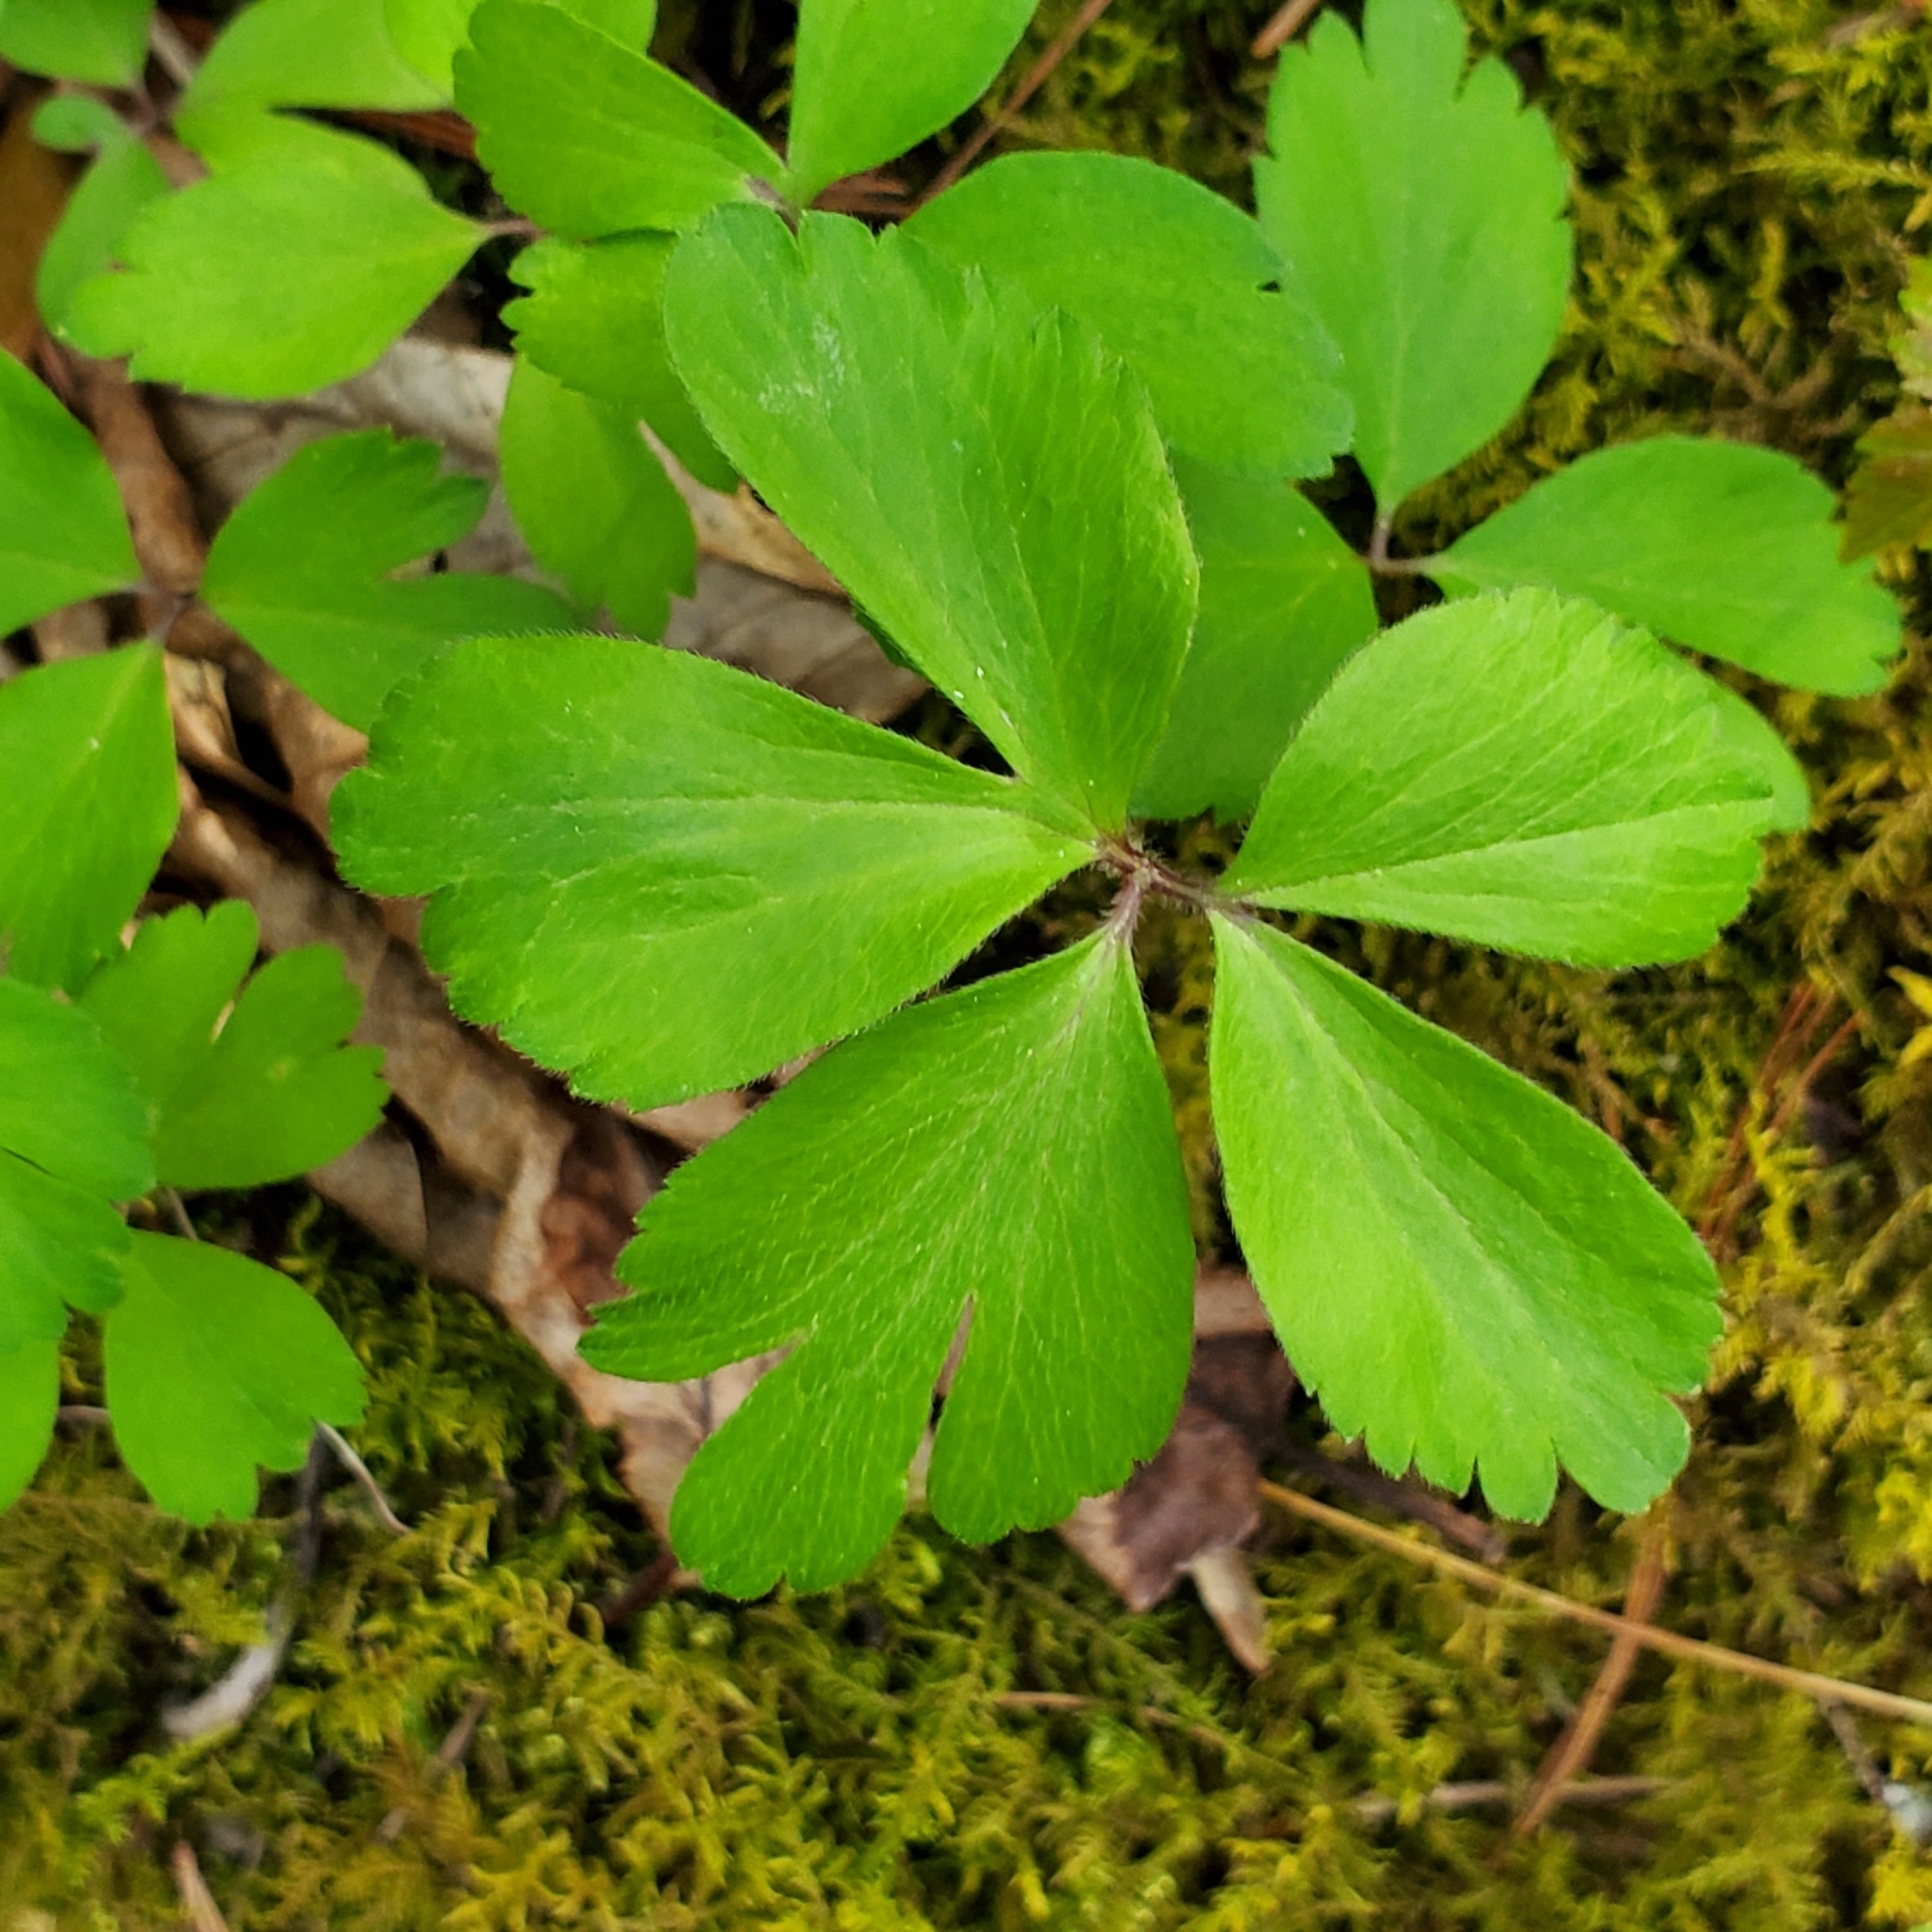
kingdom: Plantae
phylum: Tracheophyta
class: Magnoliopsida
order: Ranunculales
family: Ranunculaceae
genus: Anemone
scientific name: Anemone quinquefolia
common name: Wood anemone
